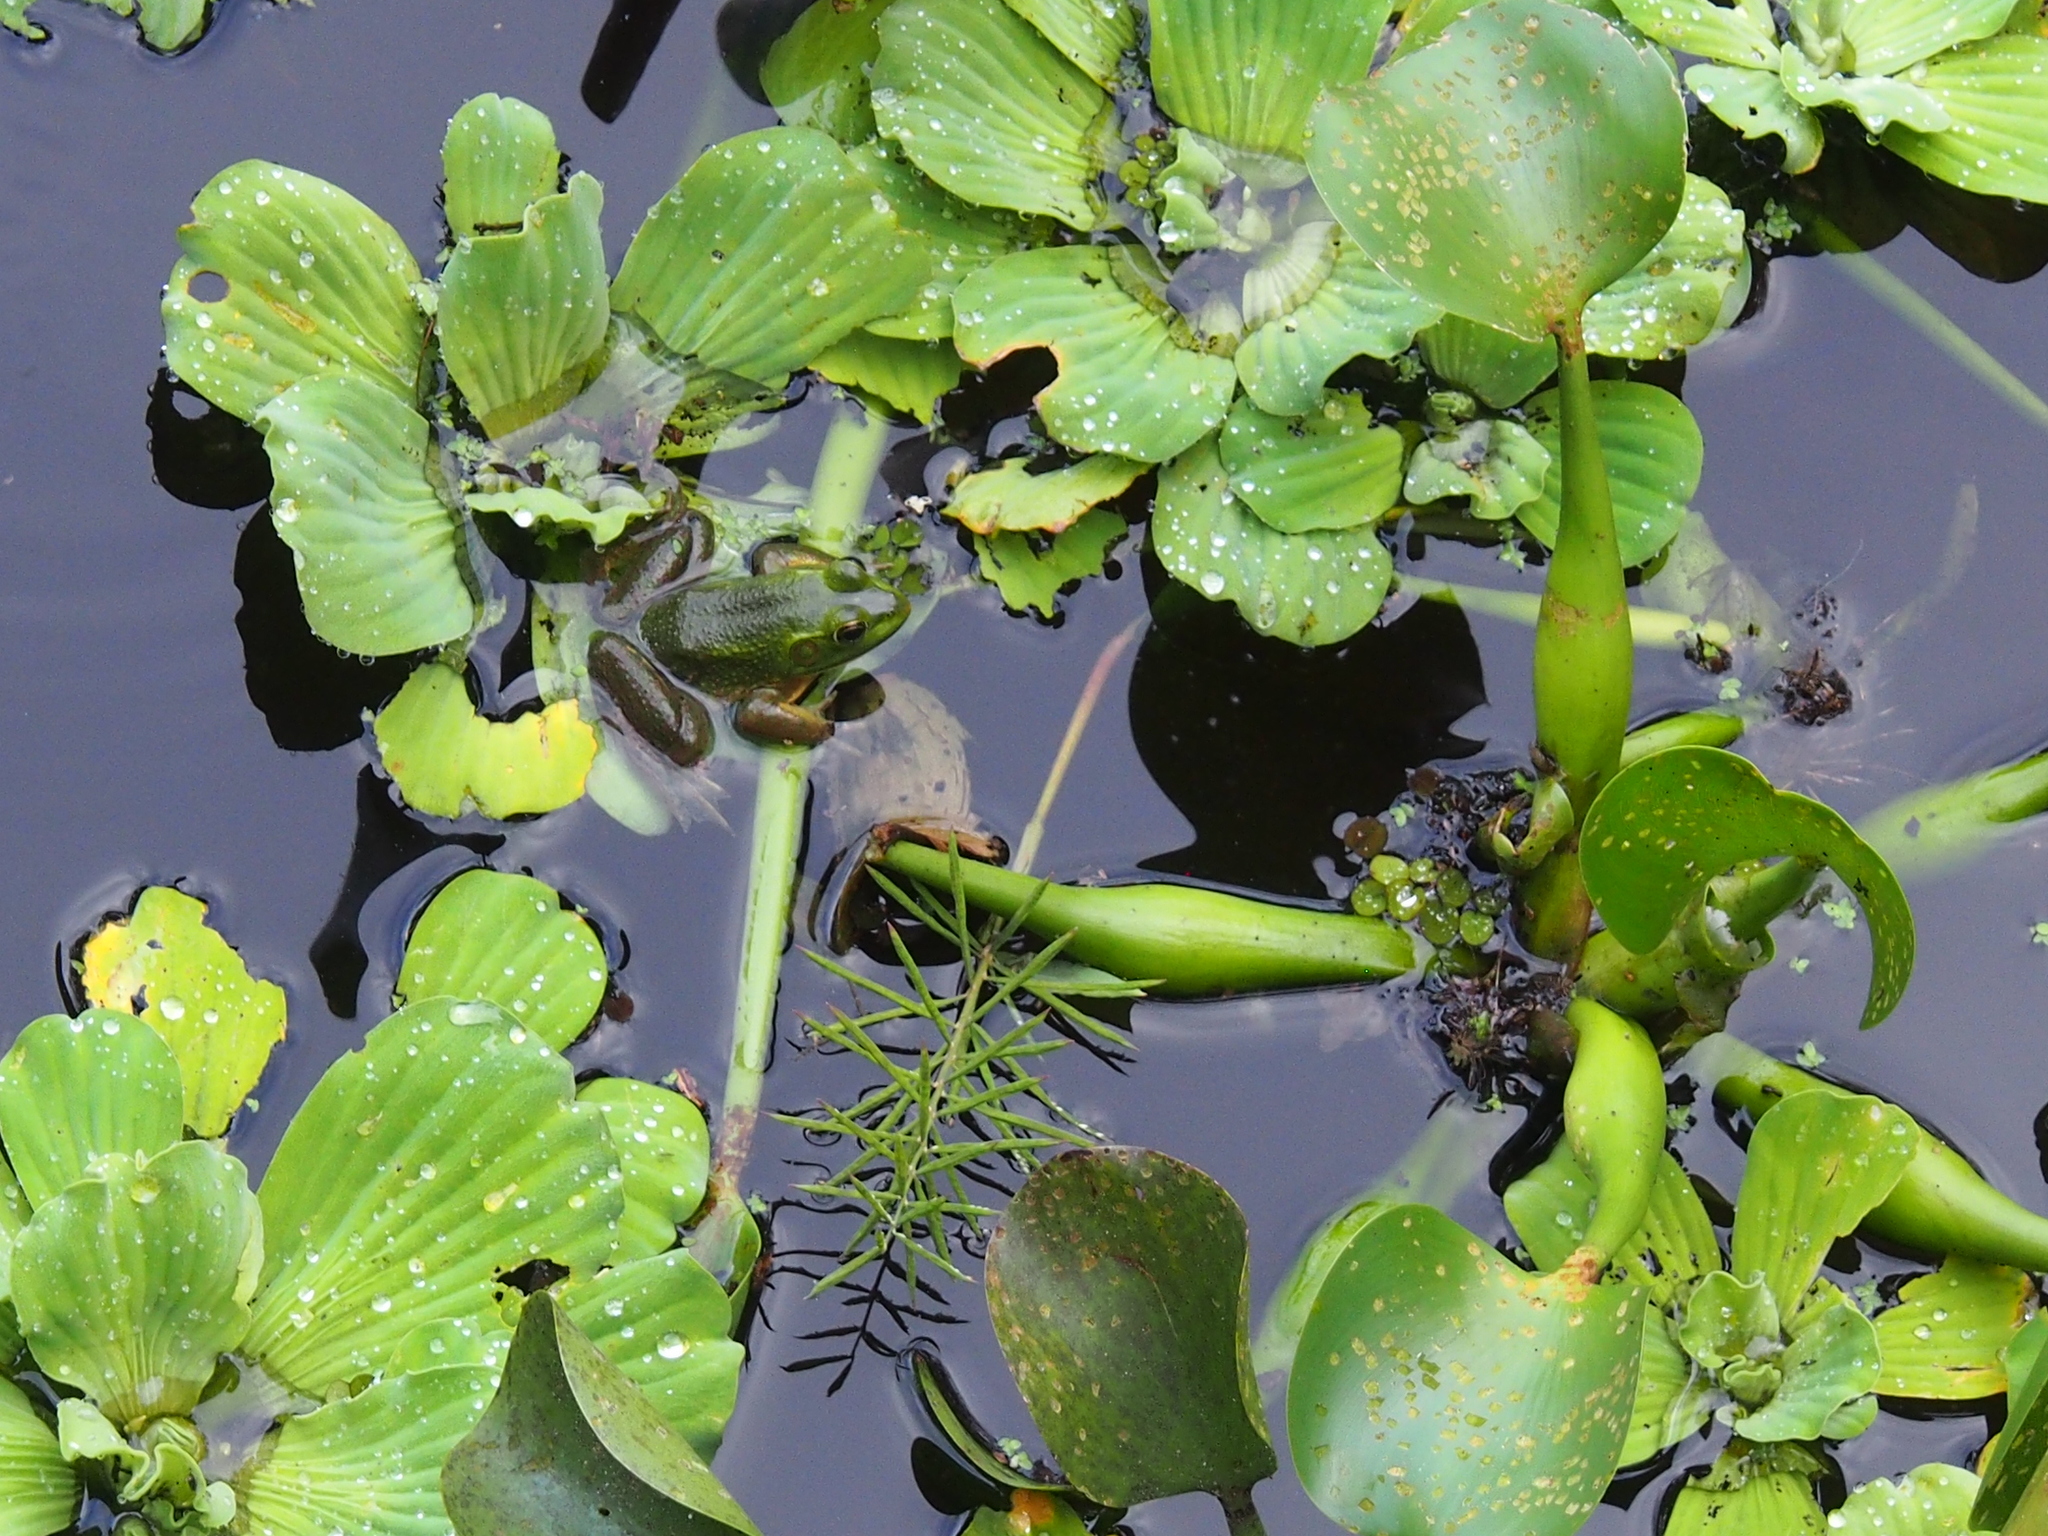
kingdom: Animalia
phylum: Chordata
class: Amphibia
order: Anura
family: Ranidae
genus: Lithobates
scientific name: Lithobates grylio
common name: Pig frog
